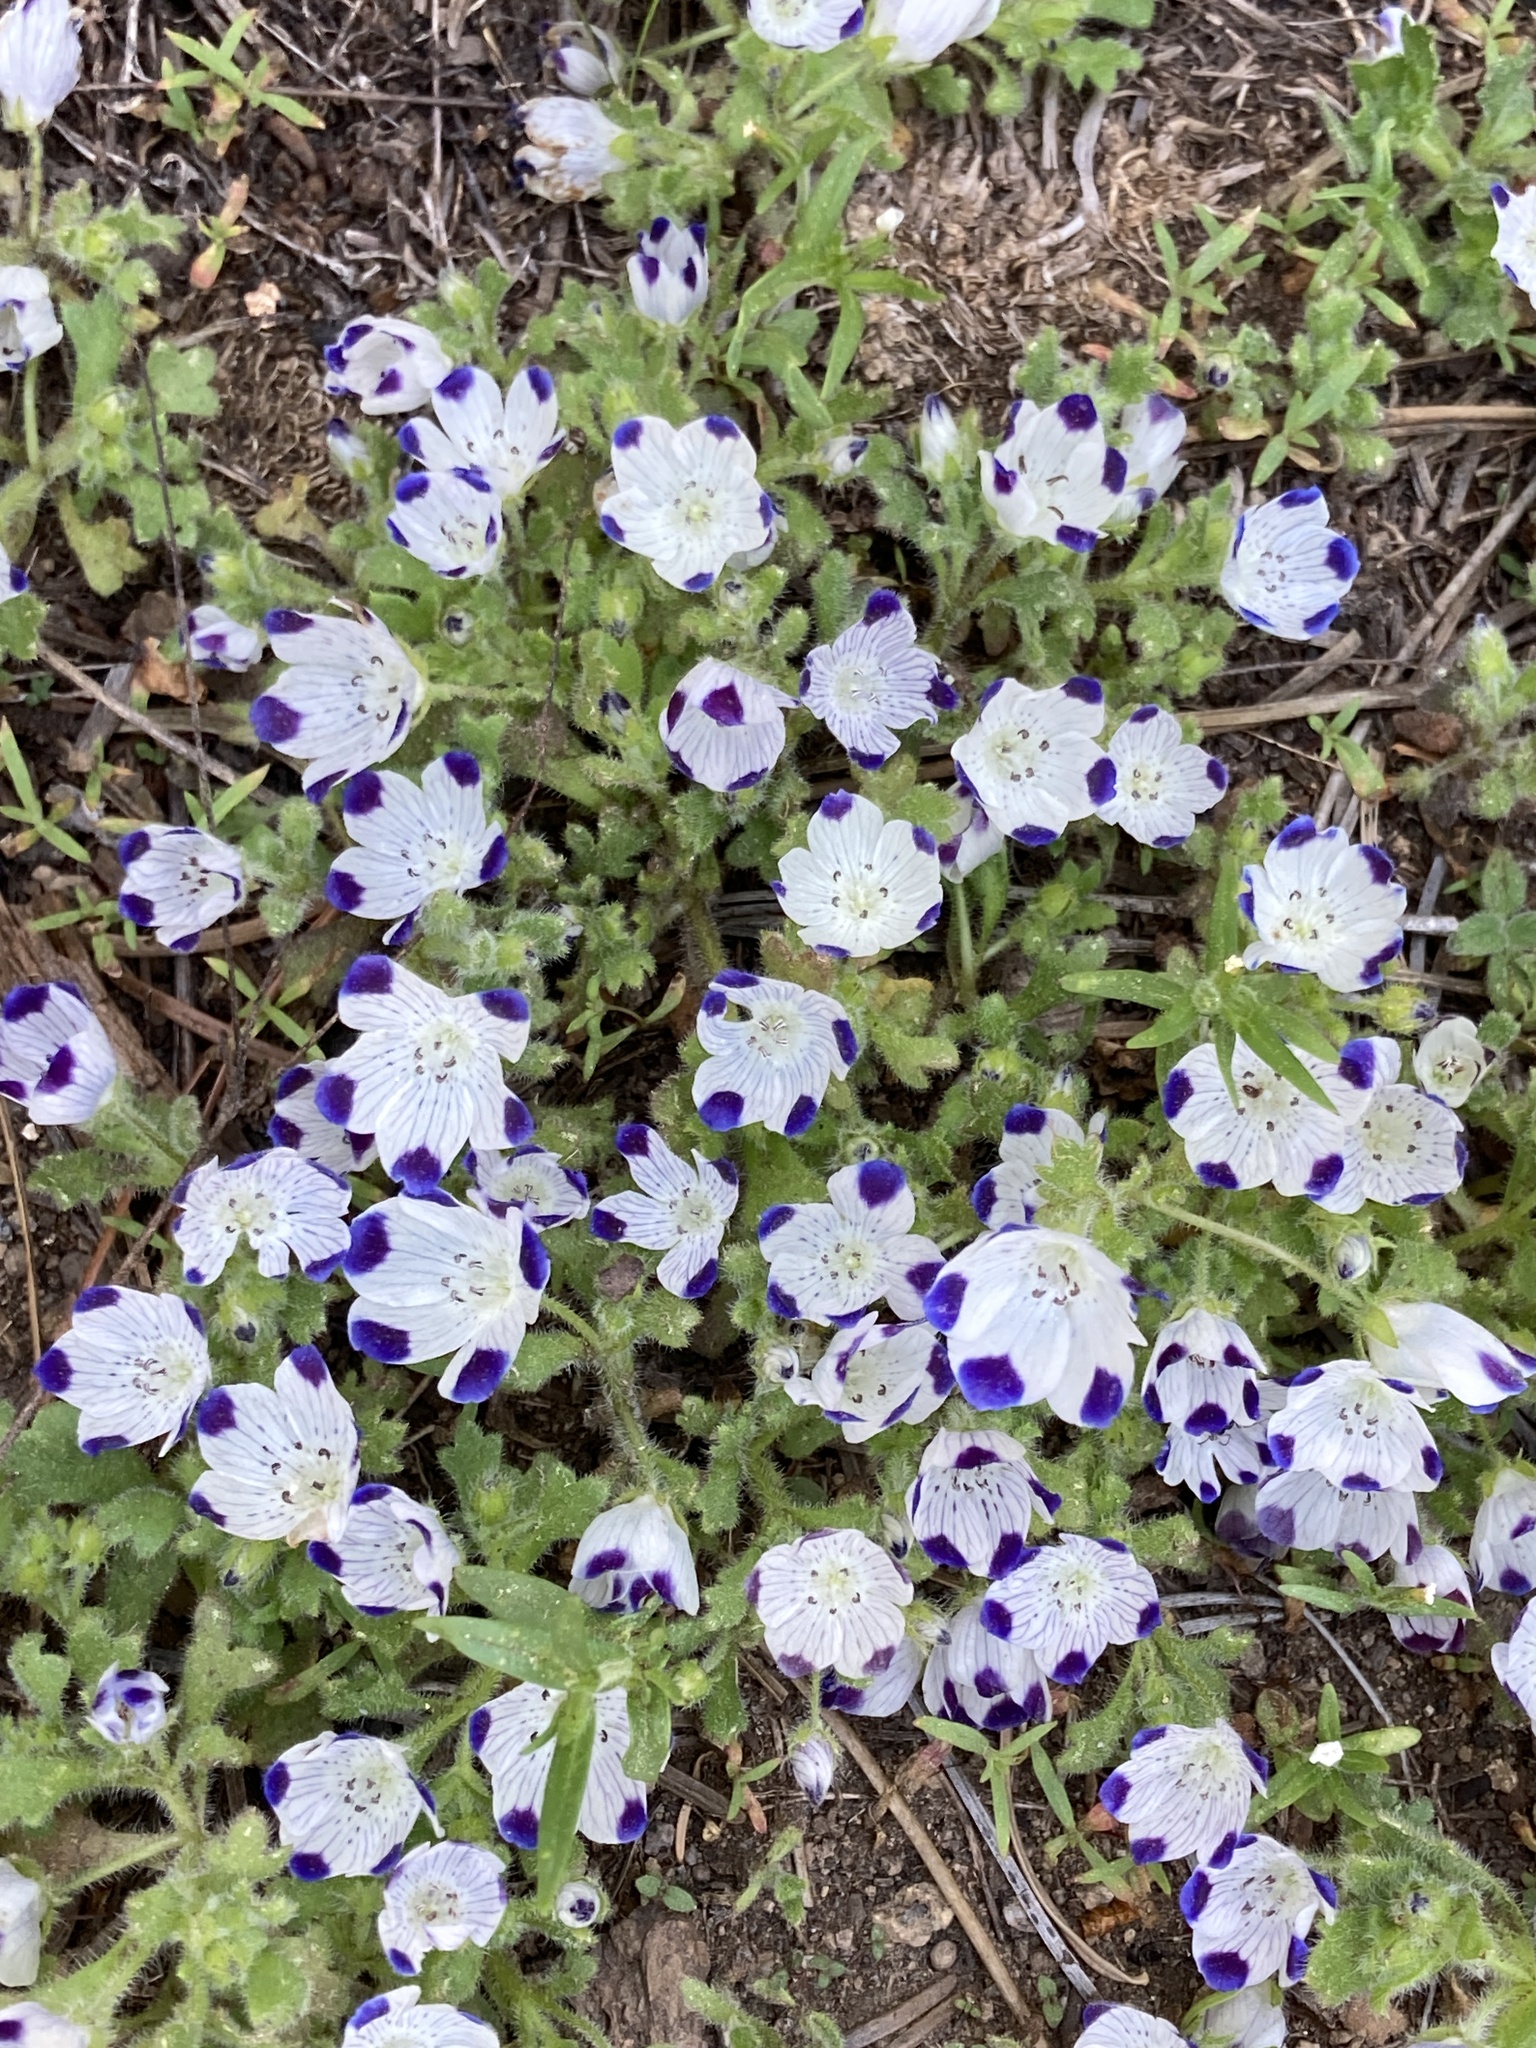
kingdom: Plantae
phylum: Tracheophyta
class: Magnoliopsida
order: Boraginales
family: Hydrophyllaceae
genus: Nemophila
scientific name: Nemophila maculata
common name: Fivespot
